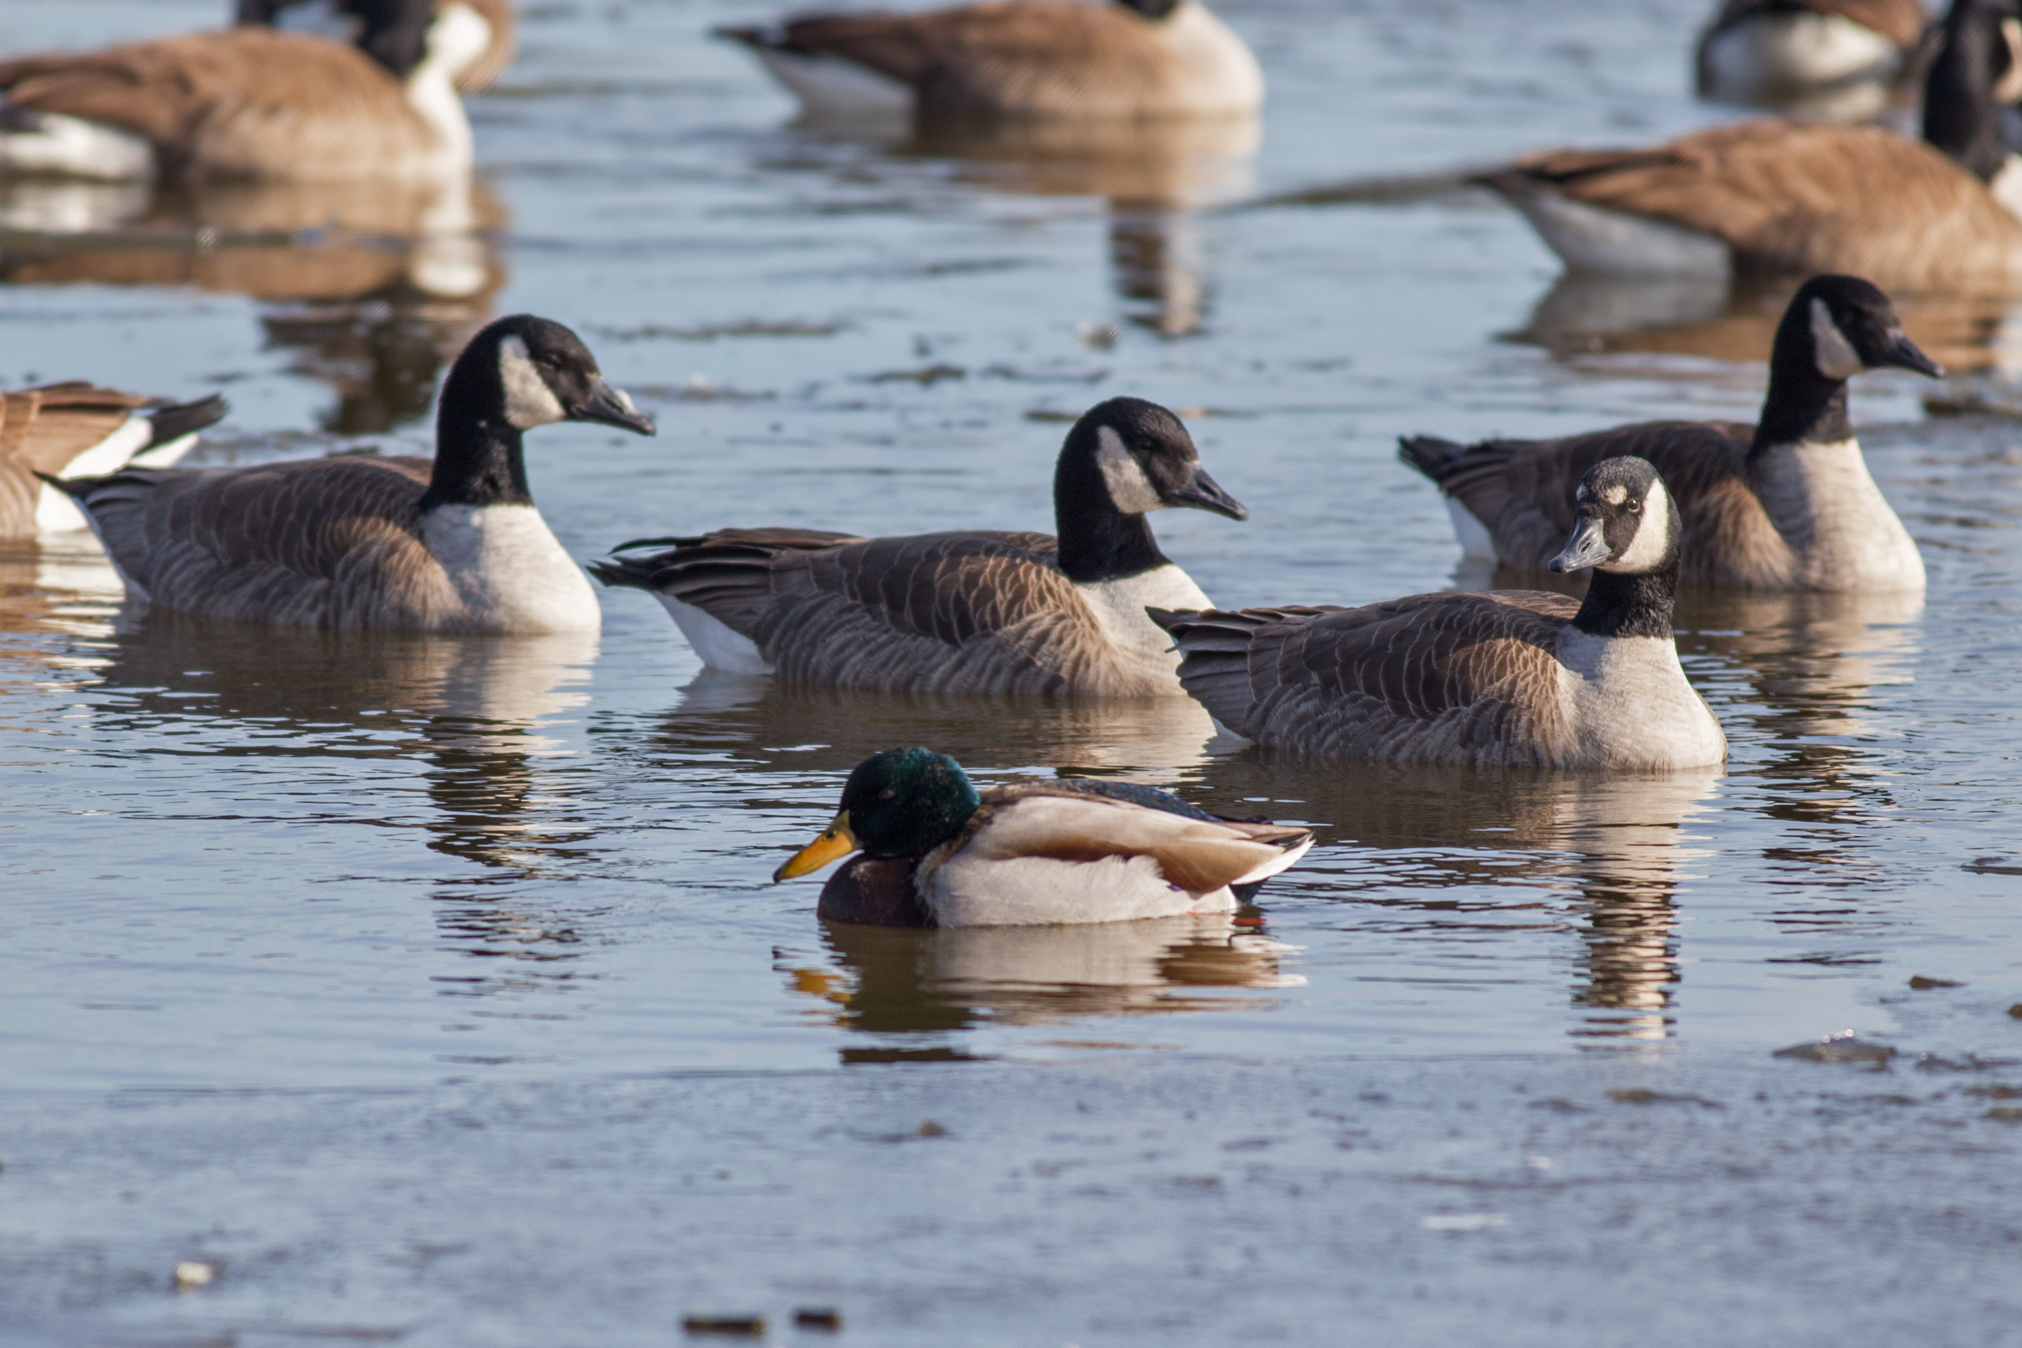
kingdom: Animalia
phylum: Chordata
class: Aves
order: Anseriformes
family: Anatidae
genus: Anas
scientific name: Anas platyrhynchos
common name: Mallard
